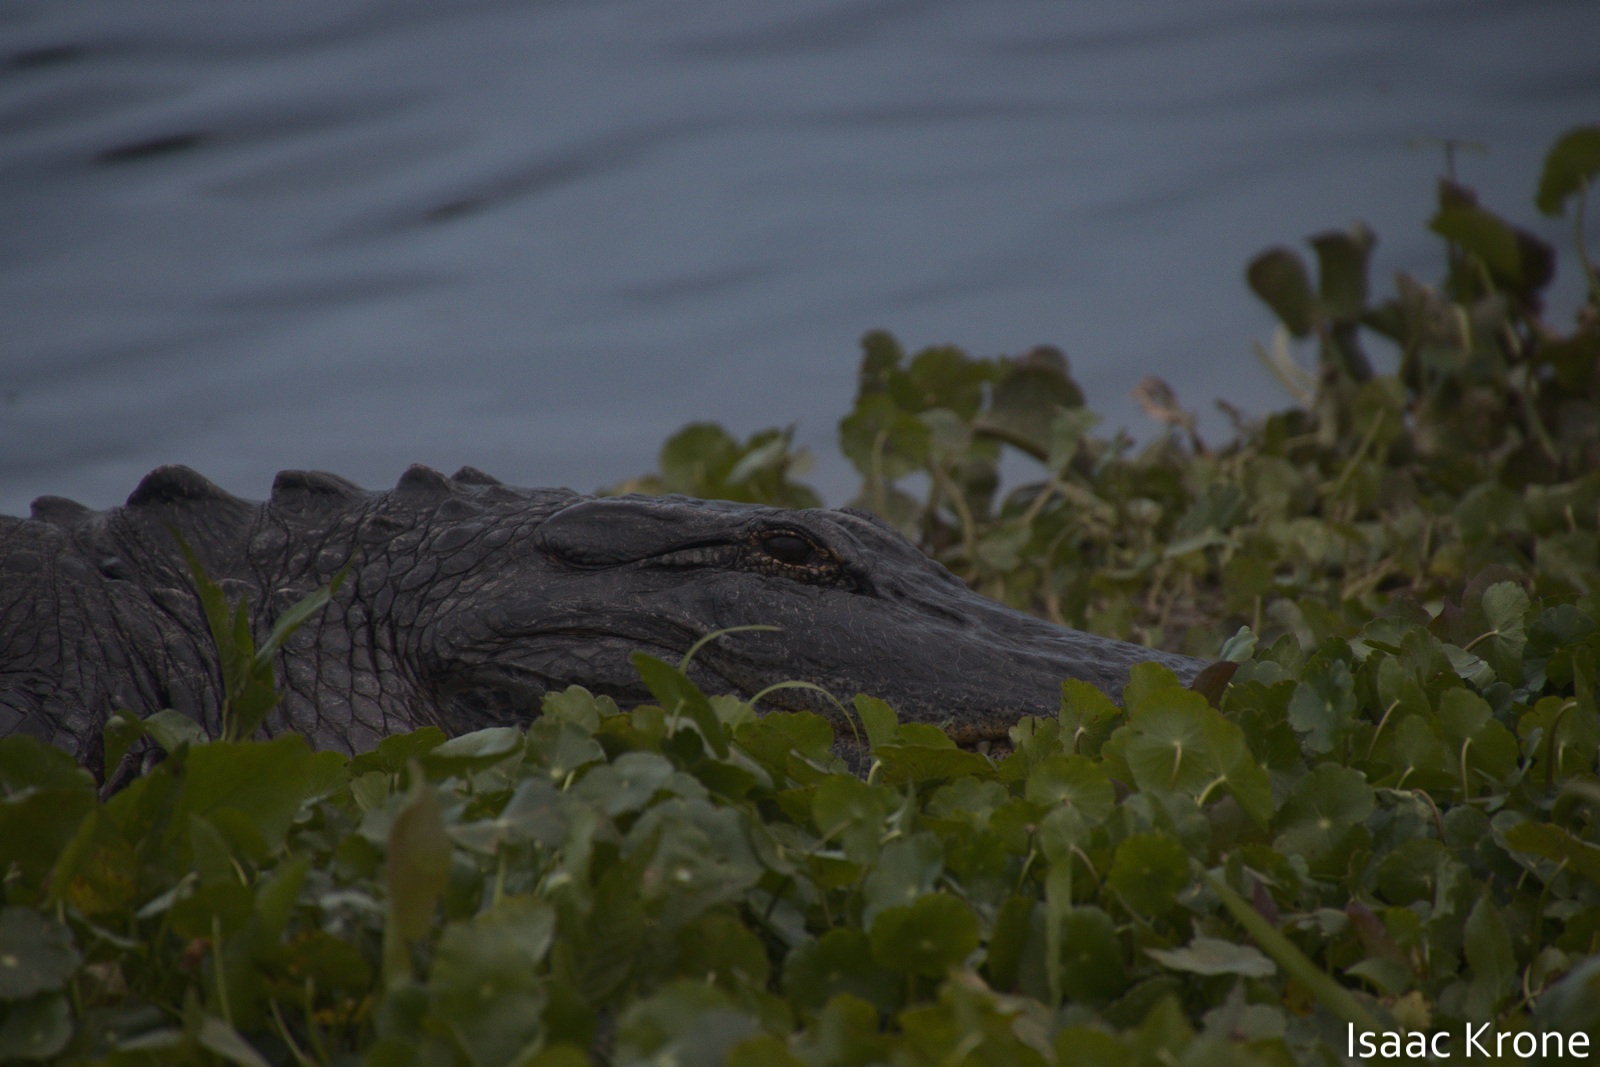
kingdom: Animalia
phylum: Chordata
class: Crocodylia
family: Alligatoridae
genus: Alligator
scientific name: Alligator mississippiensis
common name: American alligator
